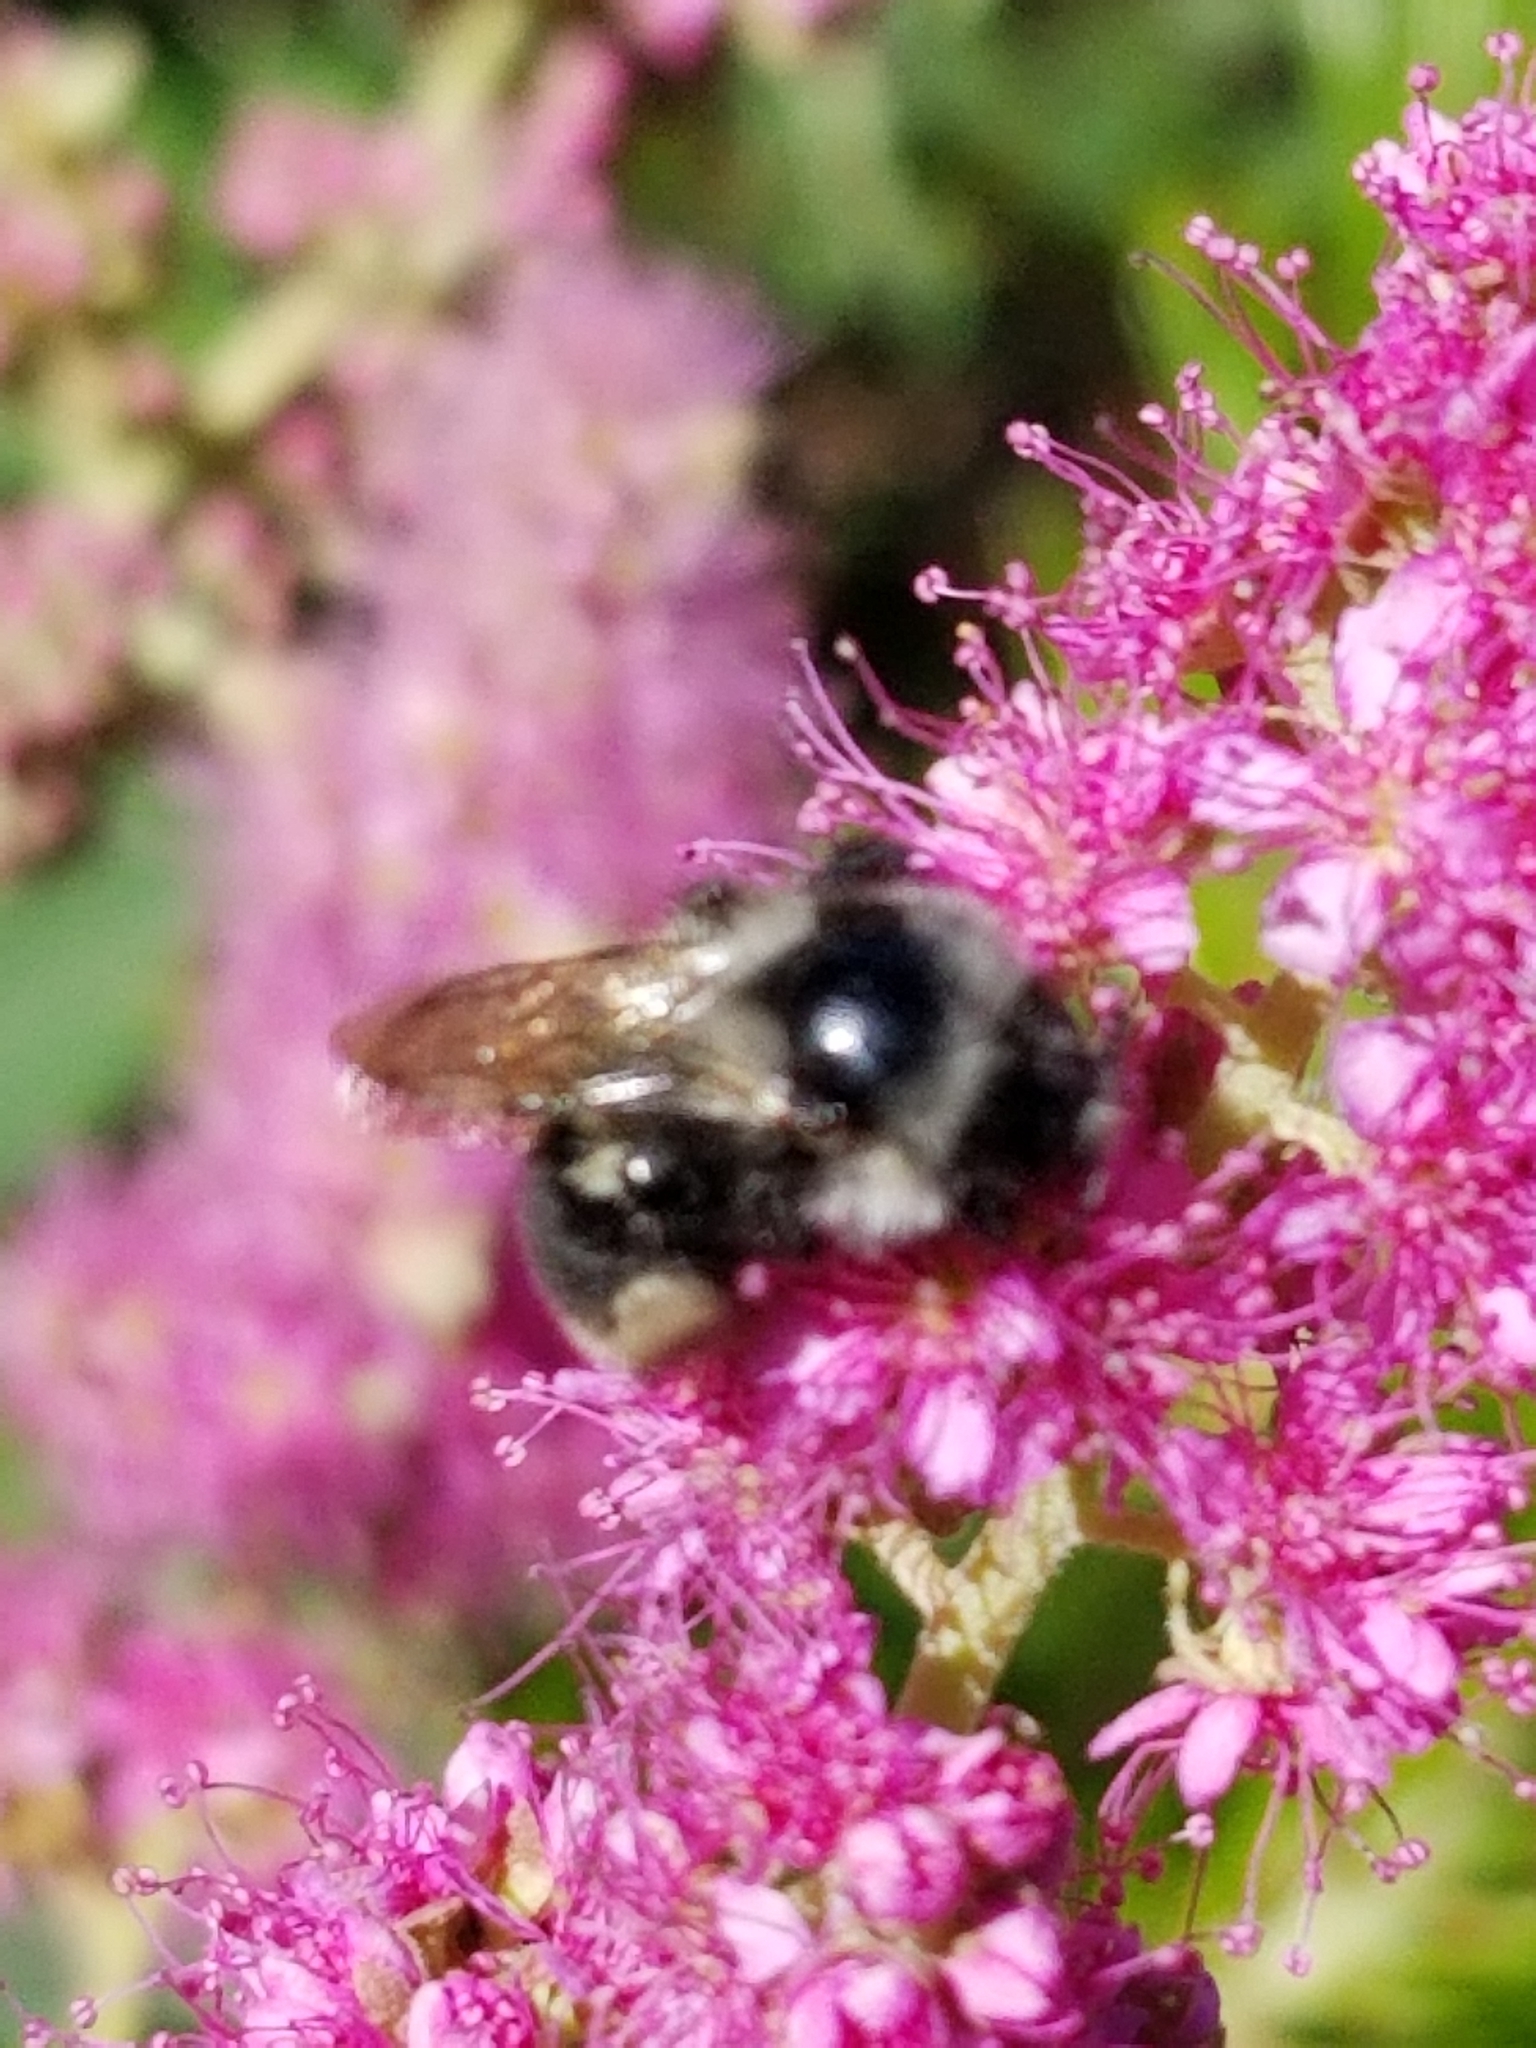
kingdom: Animalia
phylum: Arthropoda
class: Insecta
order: Hymenoptera
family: Apidae
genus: Bombus
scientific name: Bombus vancouverensis
